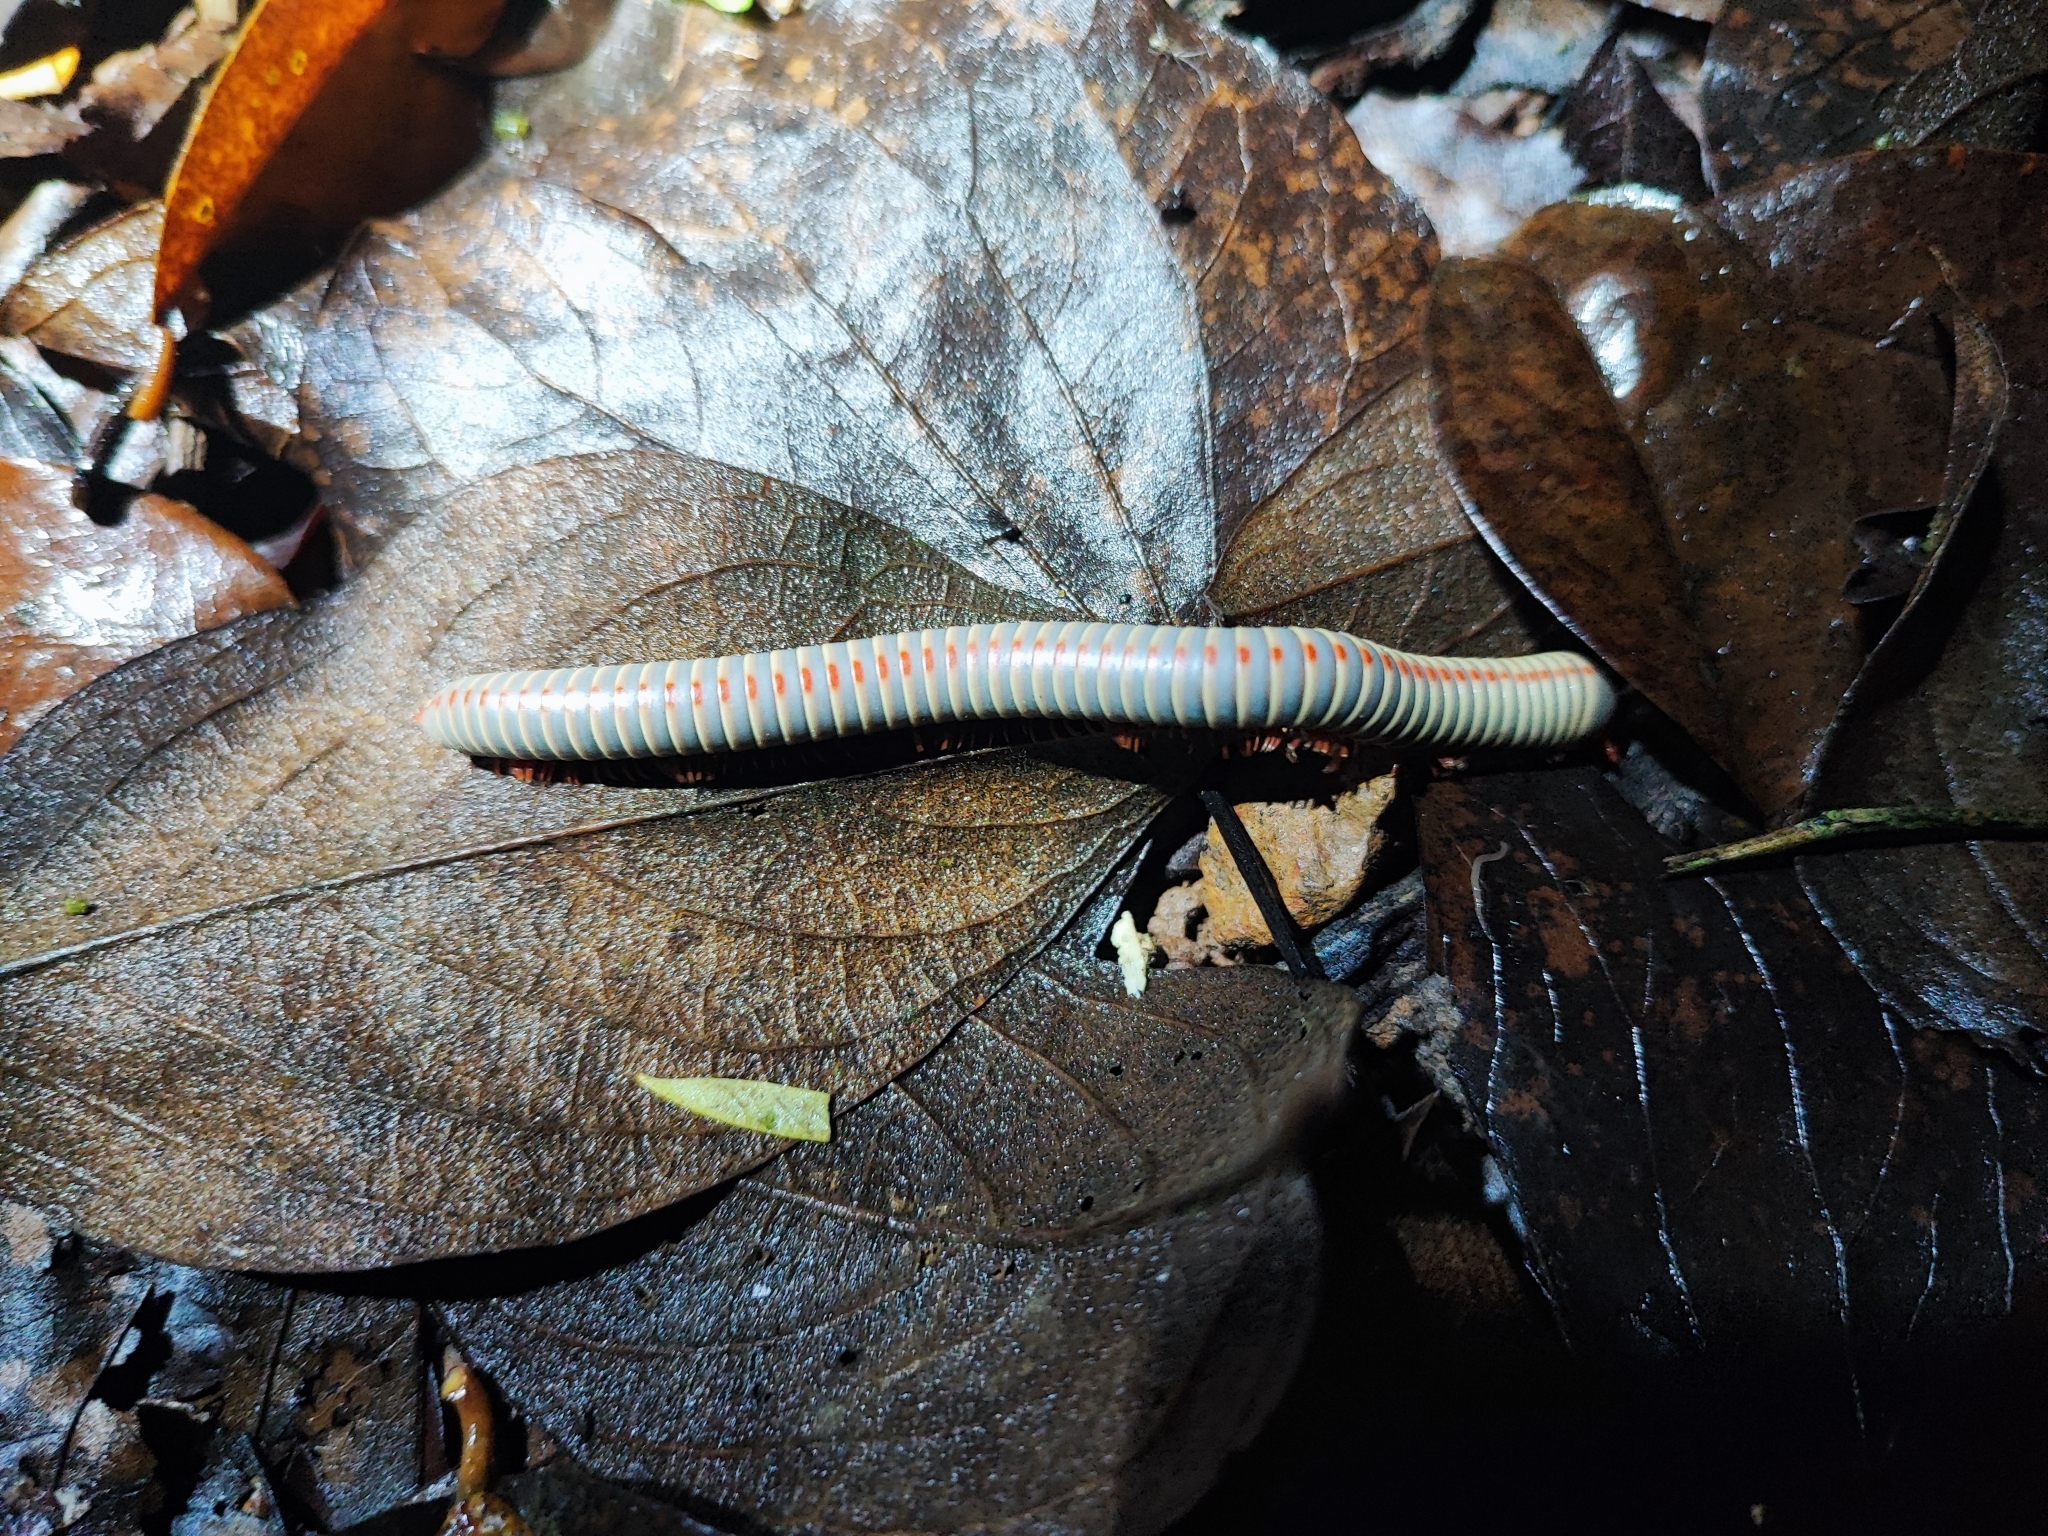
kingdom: Animalia
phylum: Arthropoda
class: Diplopoda
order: Spirobolida
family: Pachybolidae
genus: Atopochetus
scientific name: Atopochetus dollfusii
